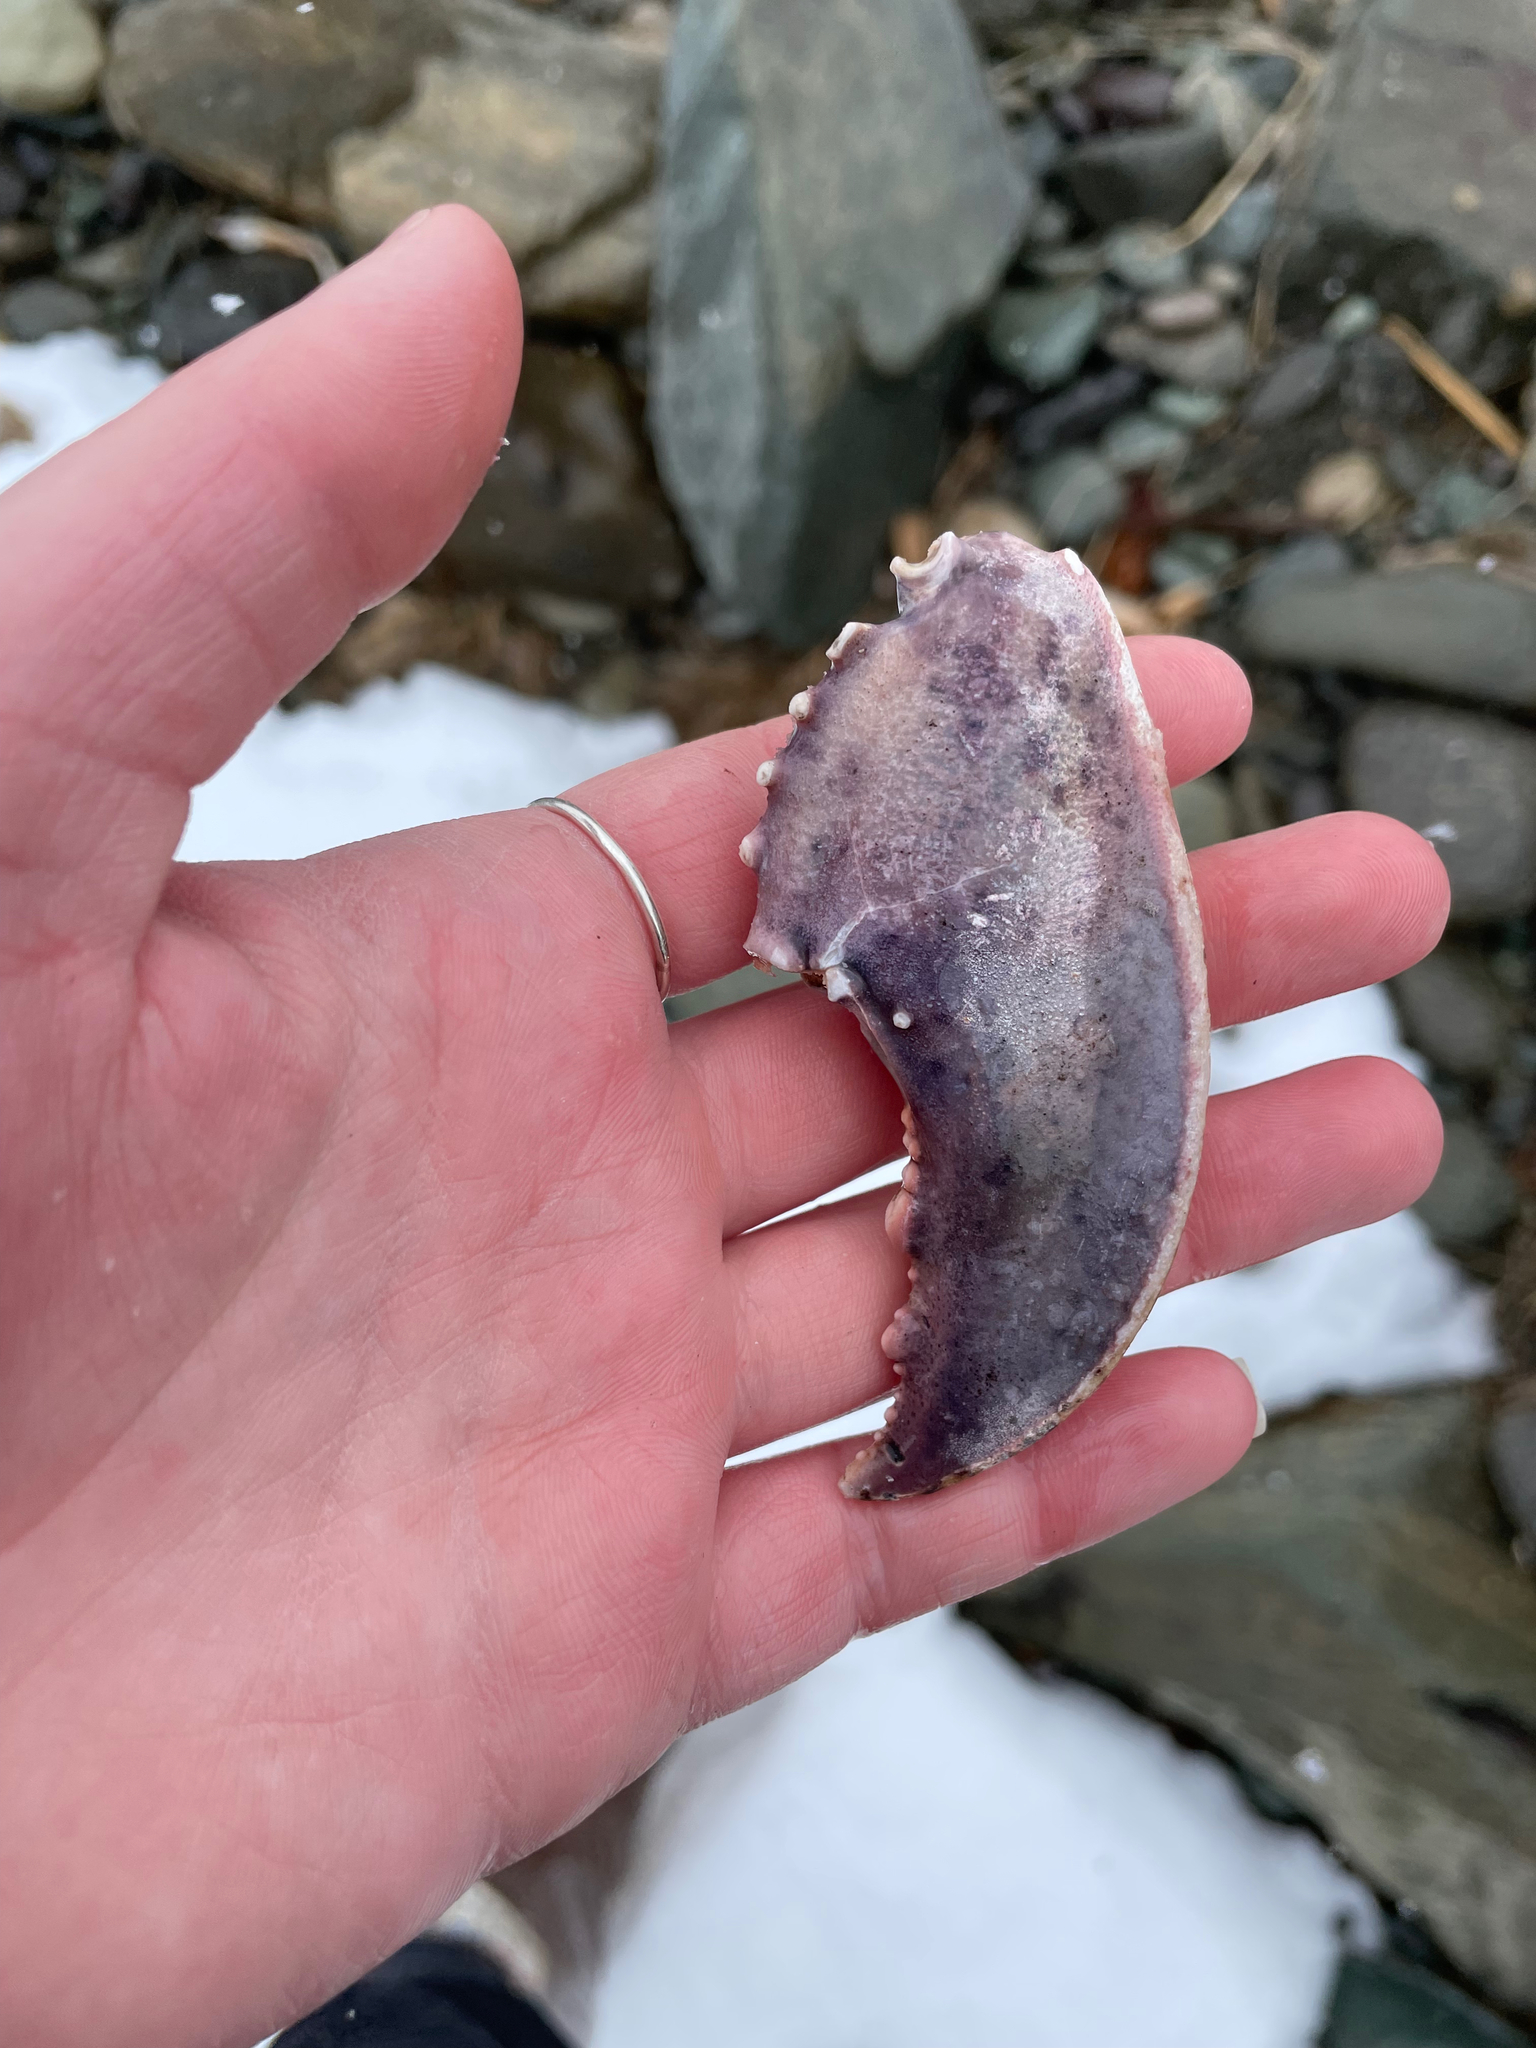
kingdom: Animalia
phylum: Arthropoda
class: Malacostraca
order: Decapoda
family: Nephropidae
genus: Homarus
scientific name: Homarus americanus
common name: American lobster
